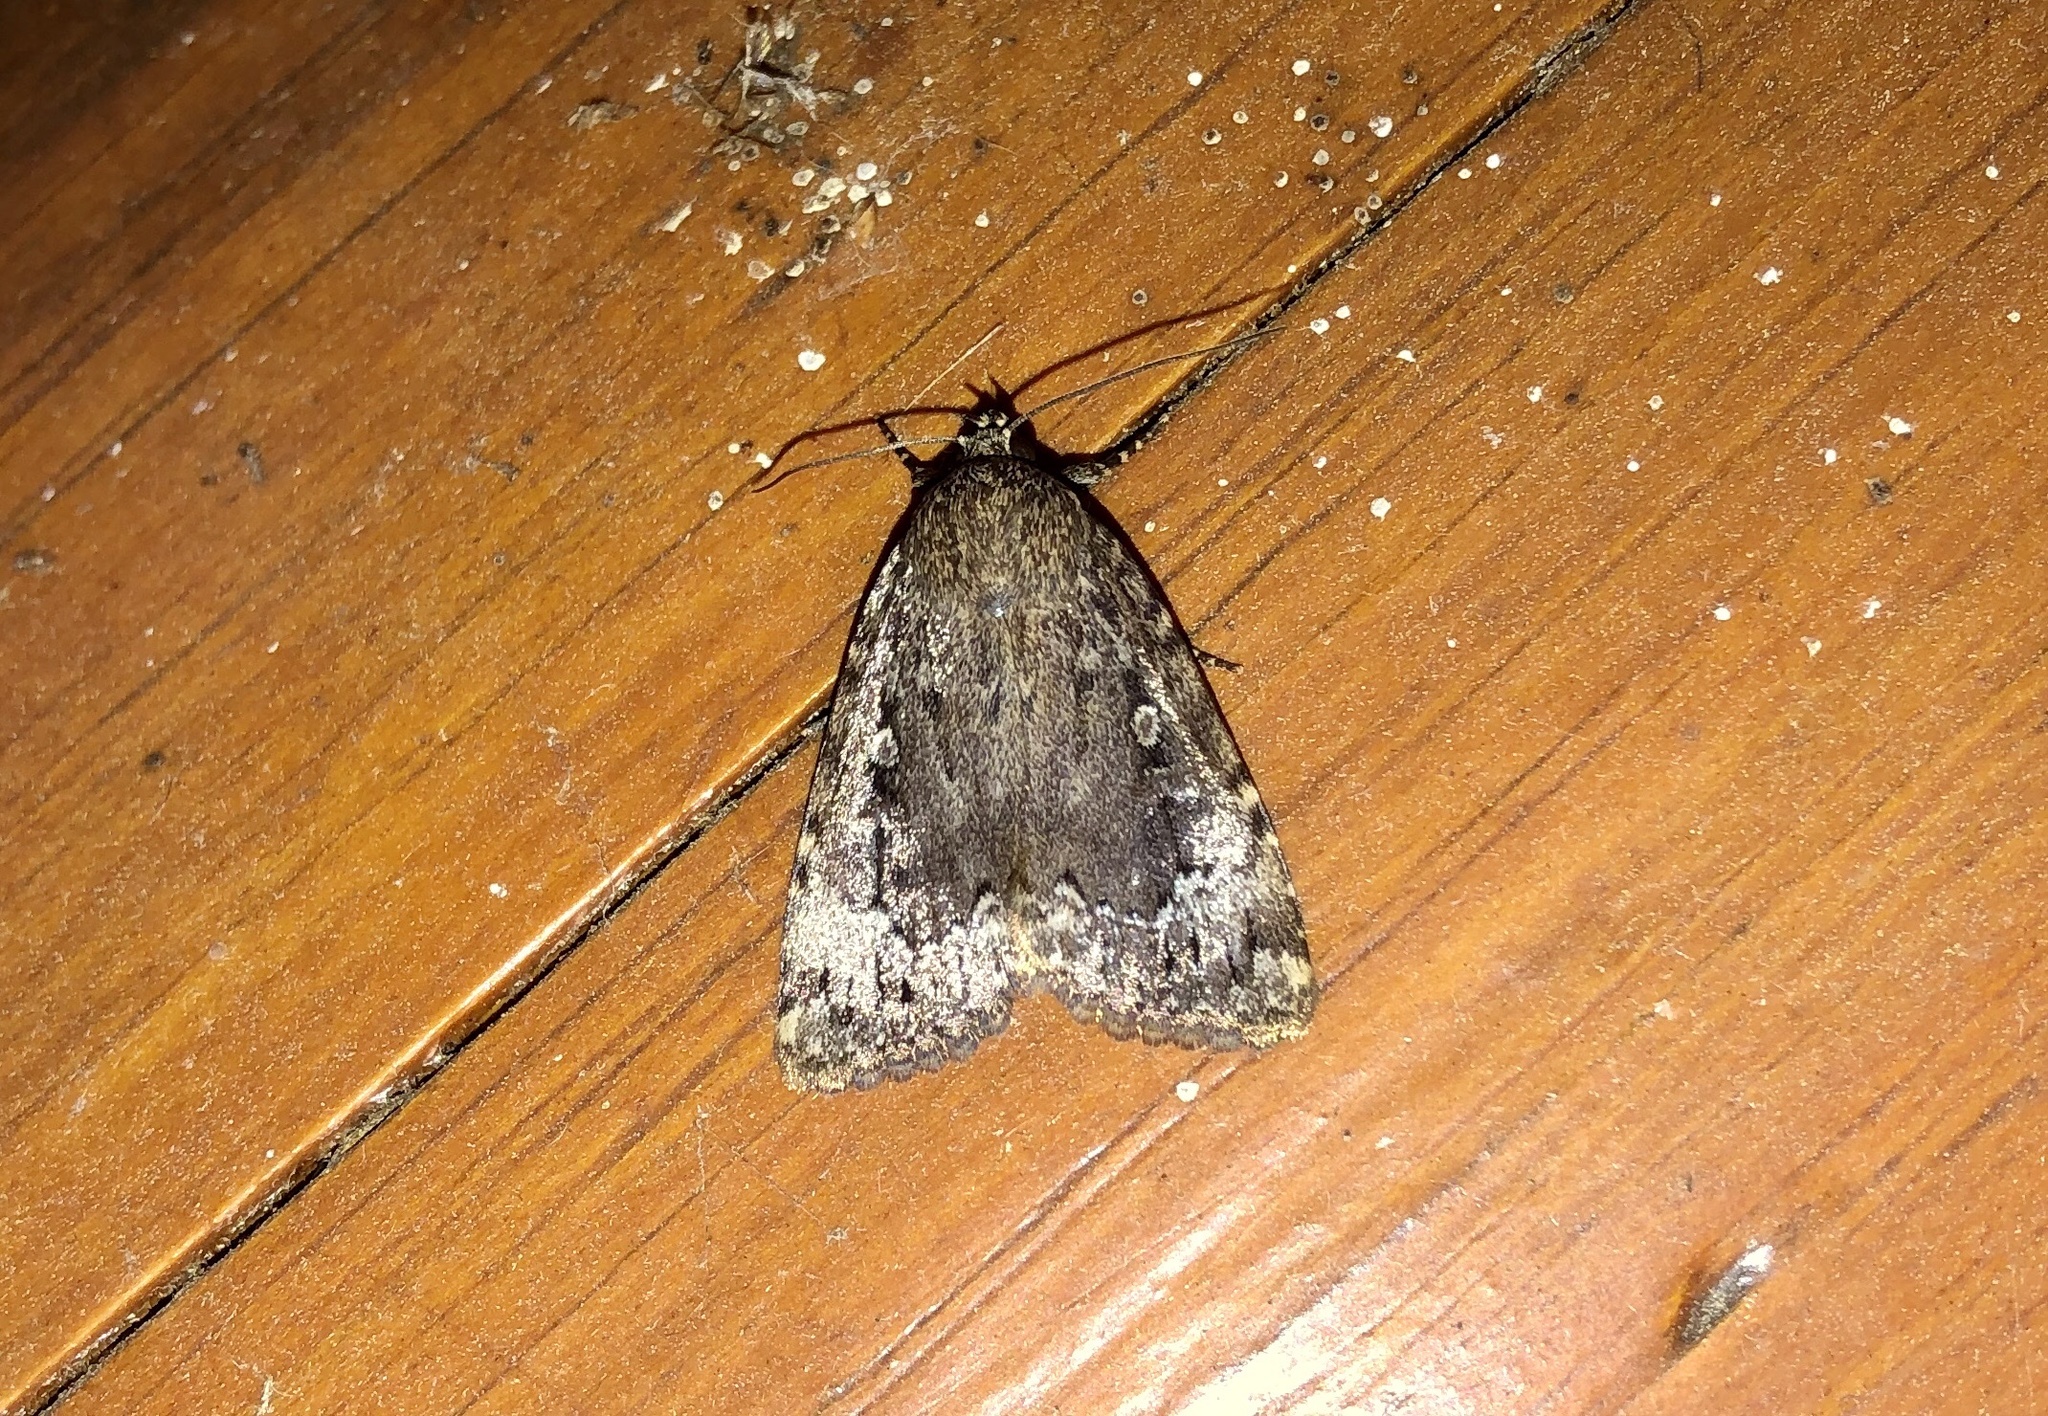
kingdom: Animalia
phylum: Arthropoda
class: Insecta
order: Lepidoptera
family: Noctuidae
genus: Amphipyra
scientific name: Amphipyra pyramidoides
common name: American copper underwing
